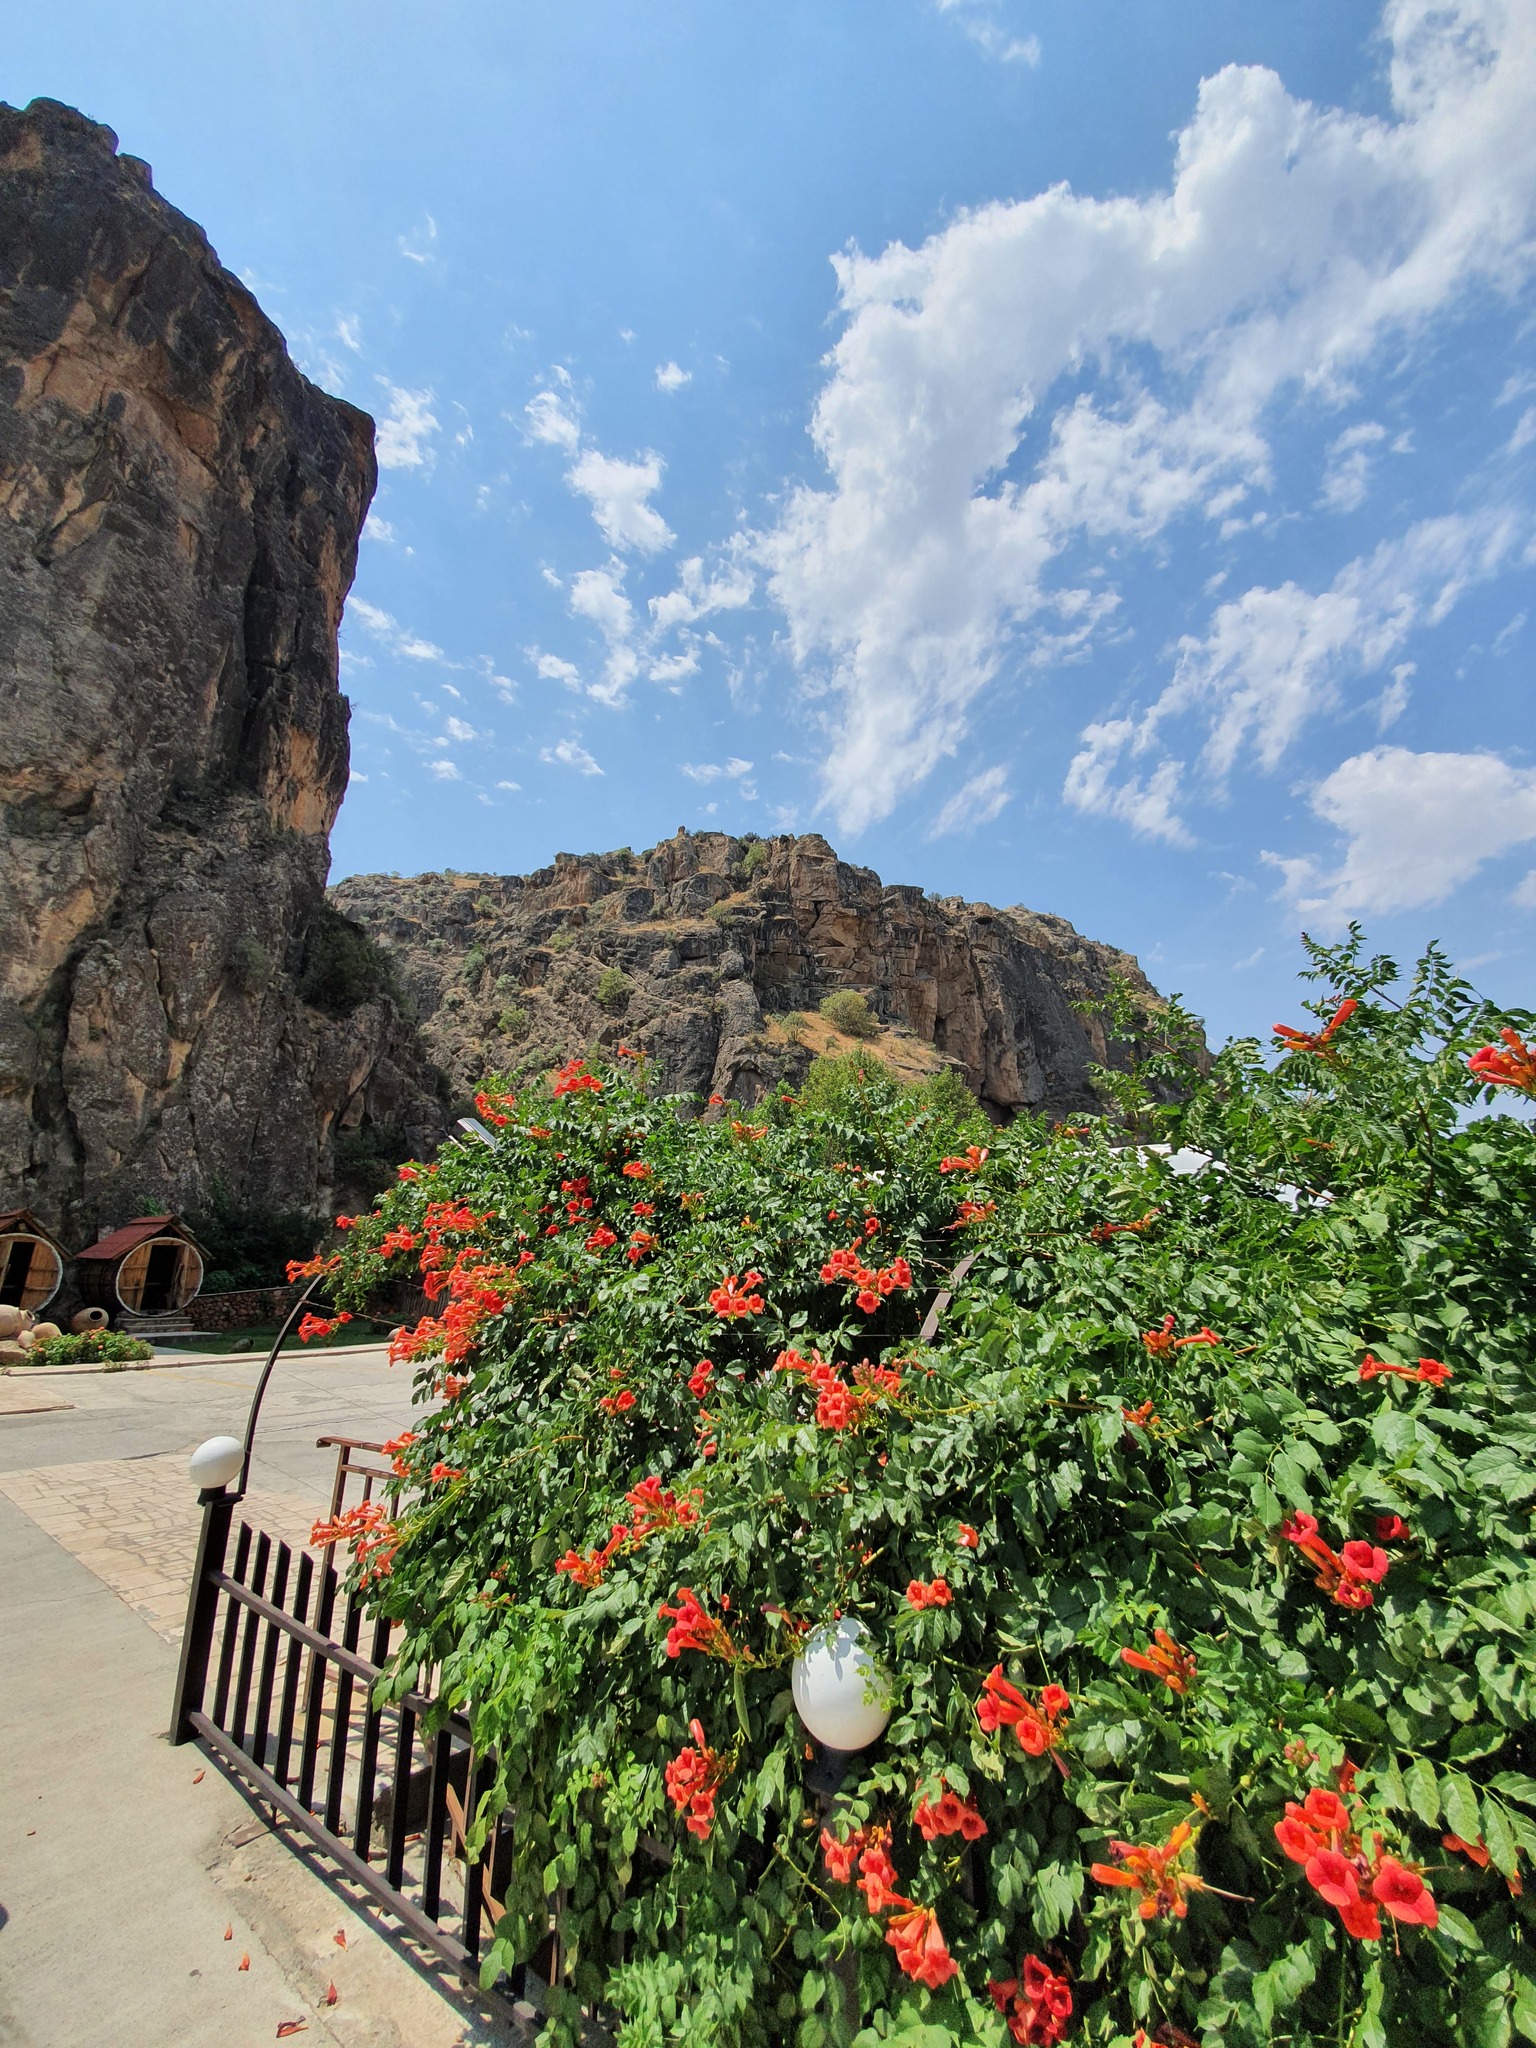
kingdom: Plantae
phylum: Tracheophyta
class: Magnoliopsida
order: Lamiales
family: Bignoniaceae
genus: Campsis
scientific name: Campsis radicans
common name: Trumpet-creeper
